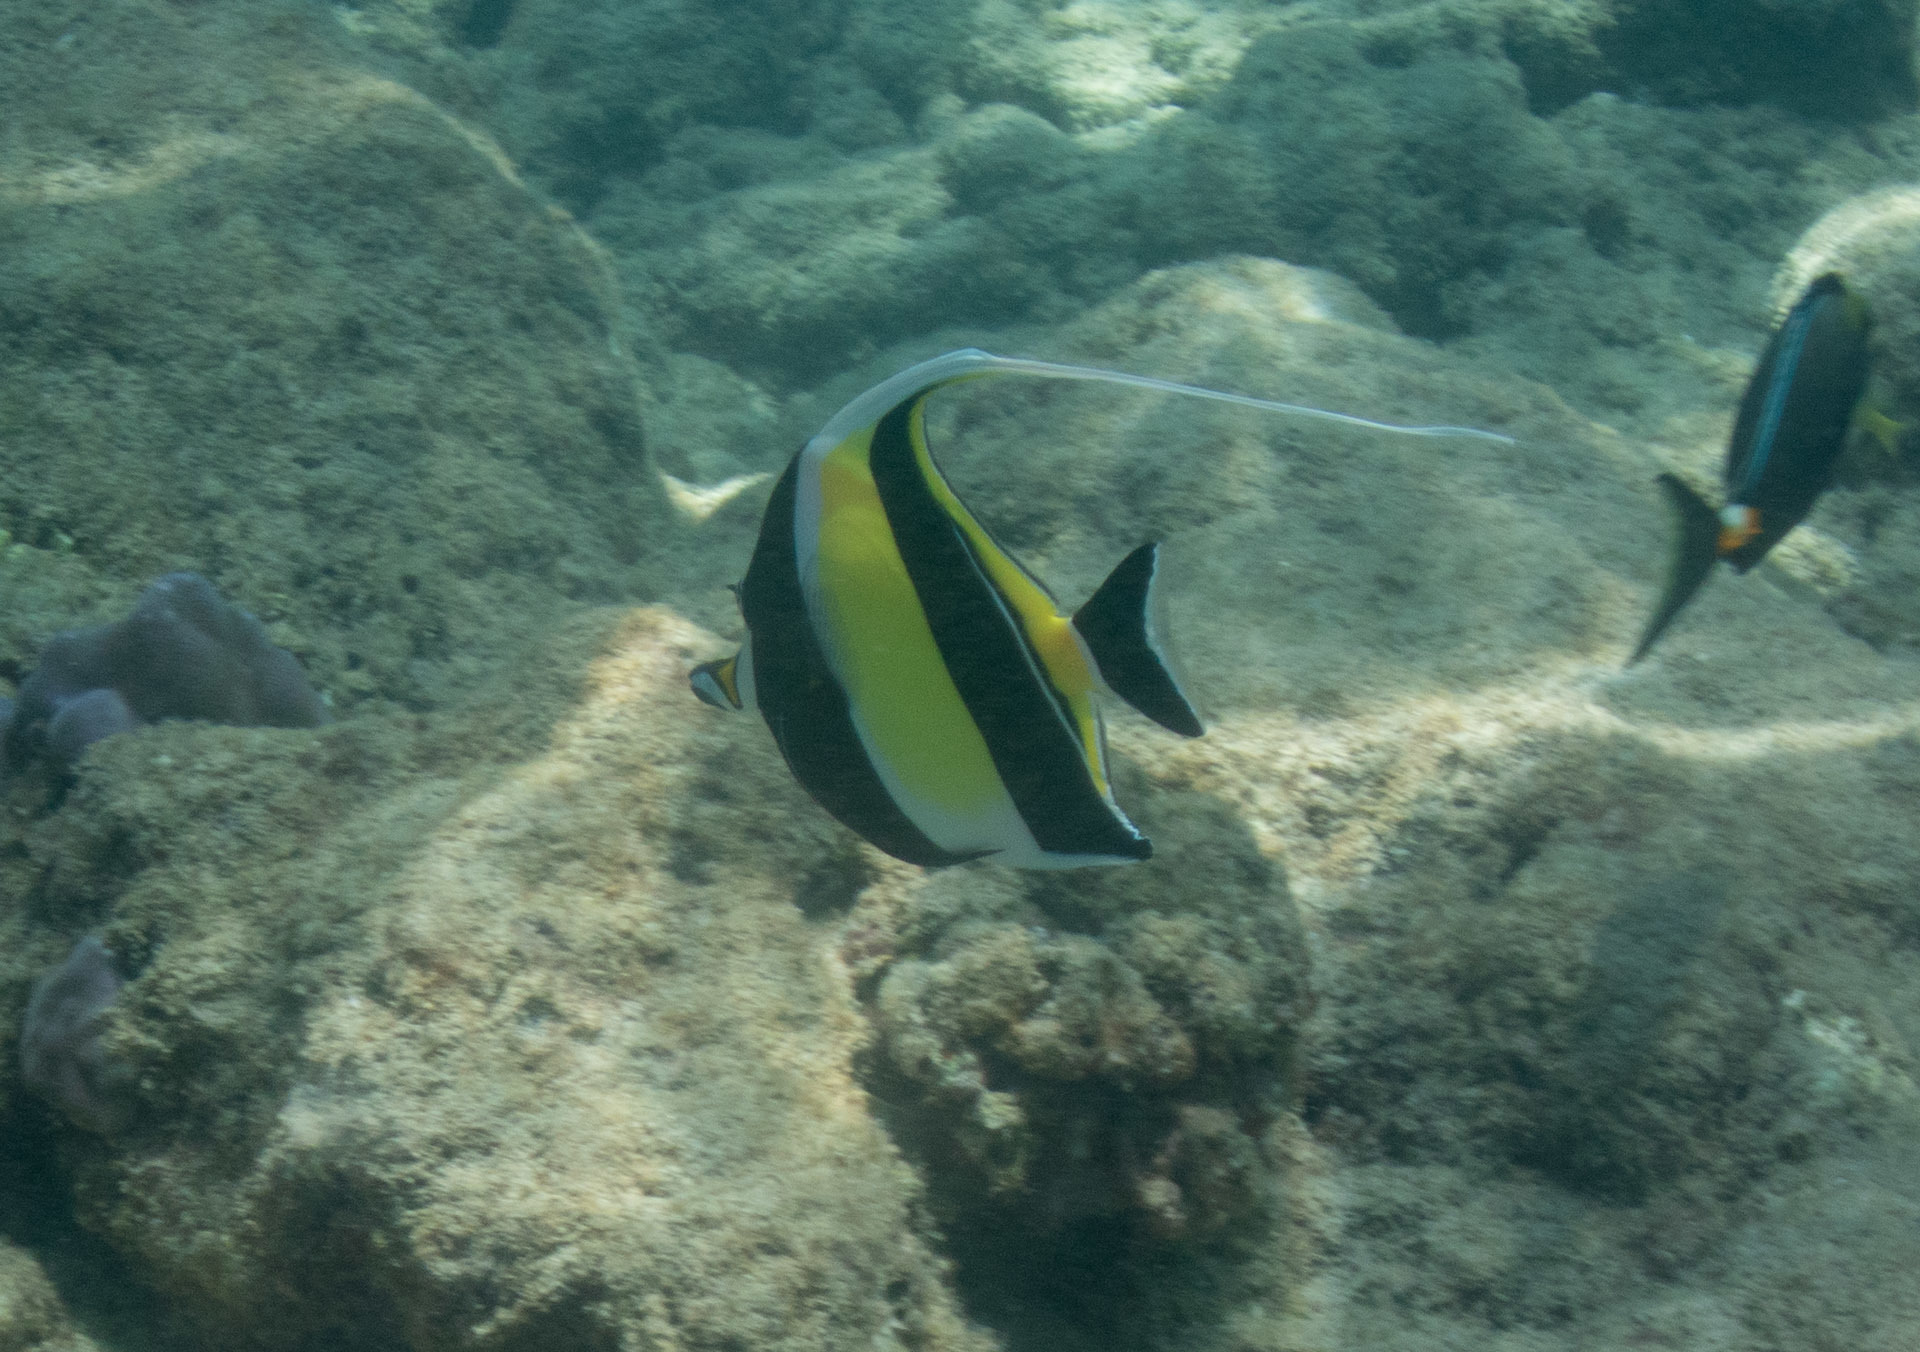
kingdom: Animalia
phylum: Chordata
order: Perciformes
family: Zanclidae
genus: Zanclus
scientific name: Zanclus cornutus
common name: Moorish idol
